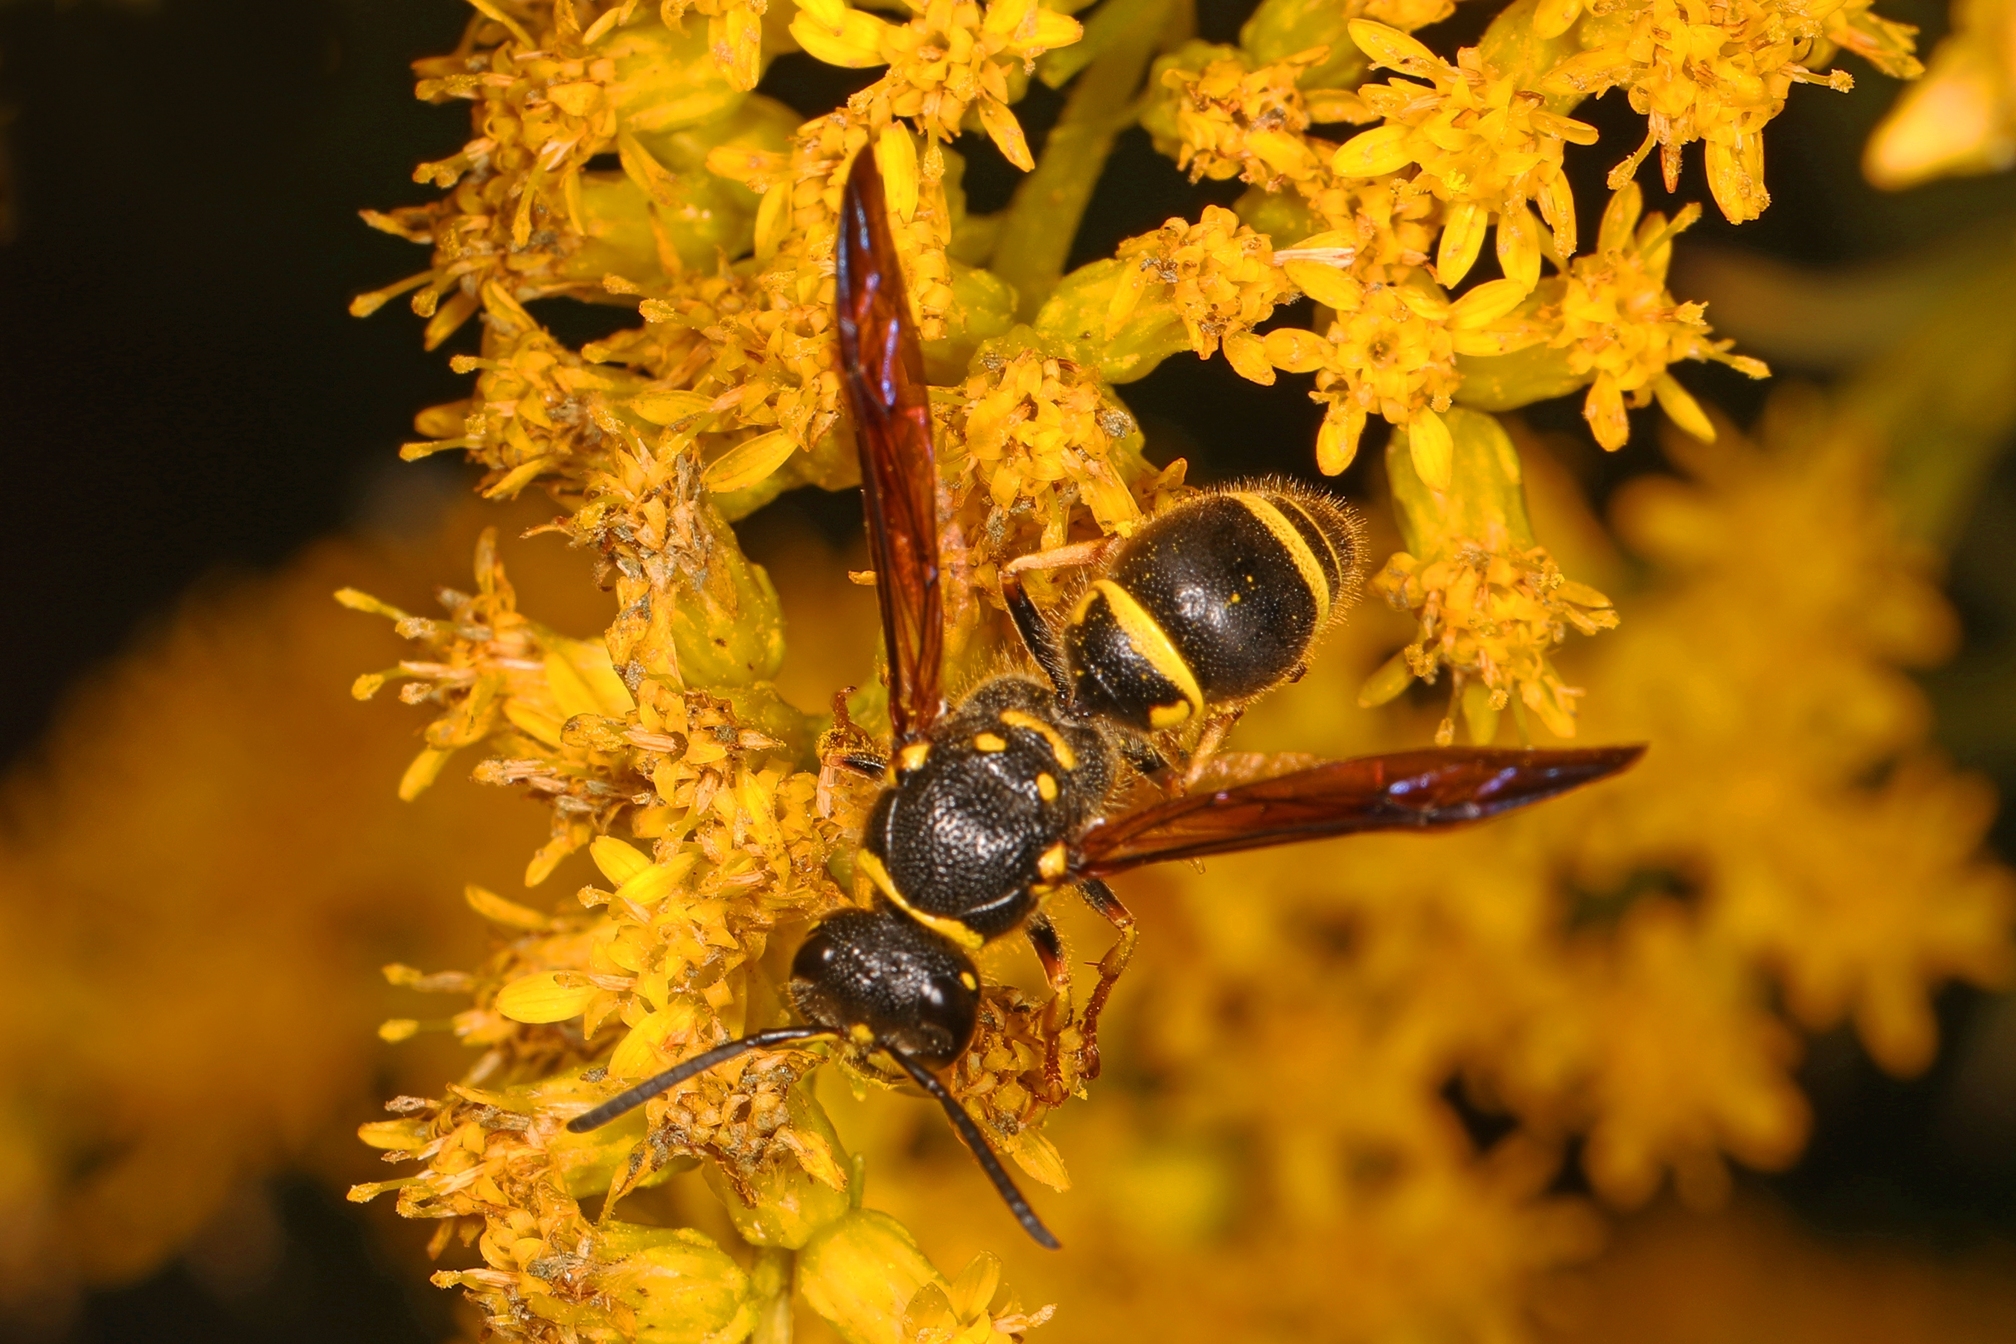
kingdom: Animalia
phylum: Arthropoda
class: Insecta
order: Hymenoptera
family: Vespidae
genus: Ancistrocerus
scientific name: Ancistrocerus campestris
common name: Smiling mason wasp
